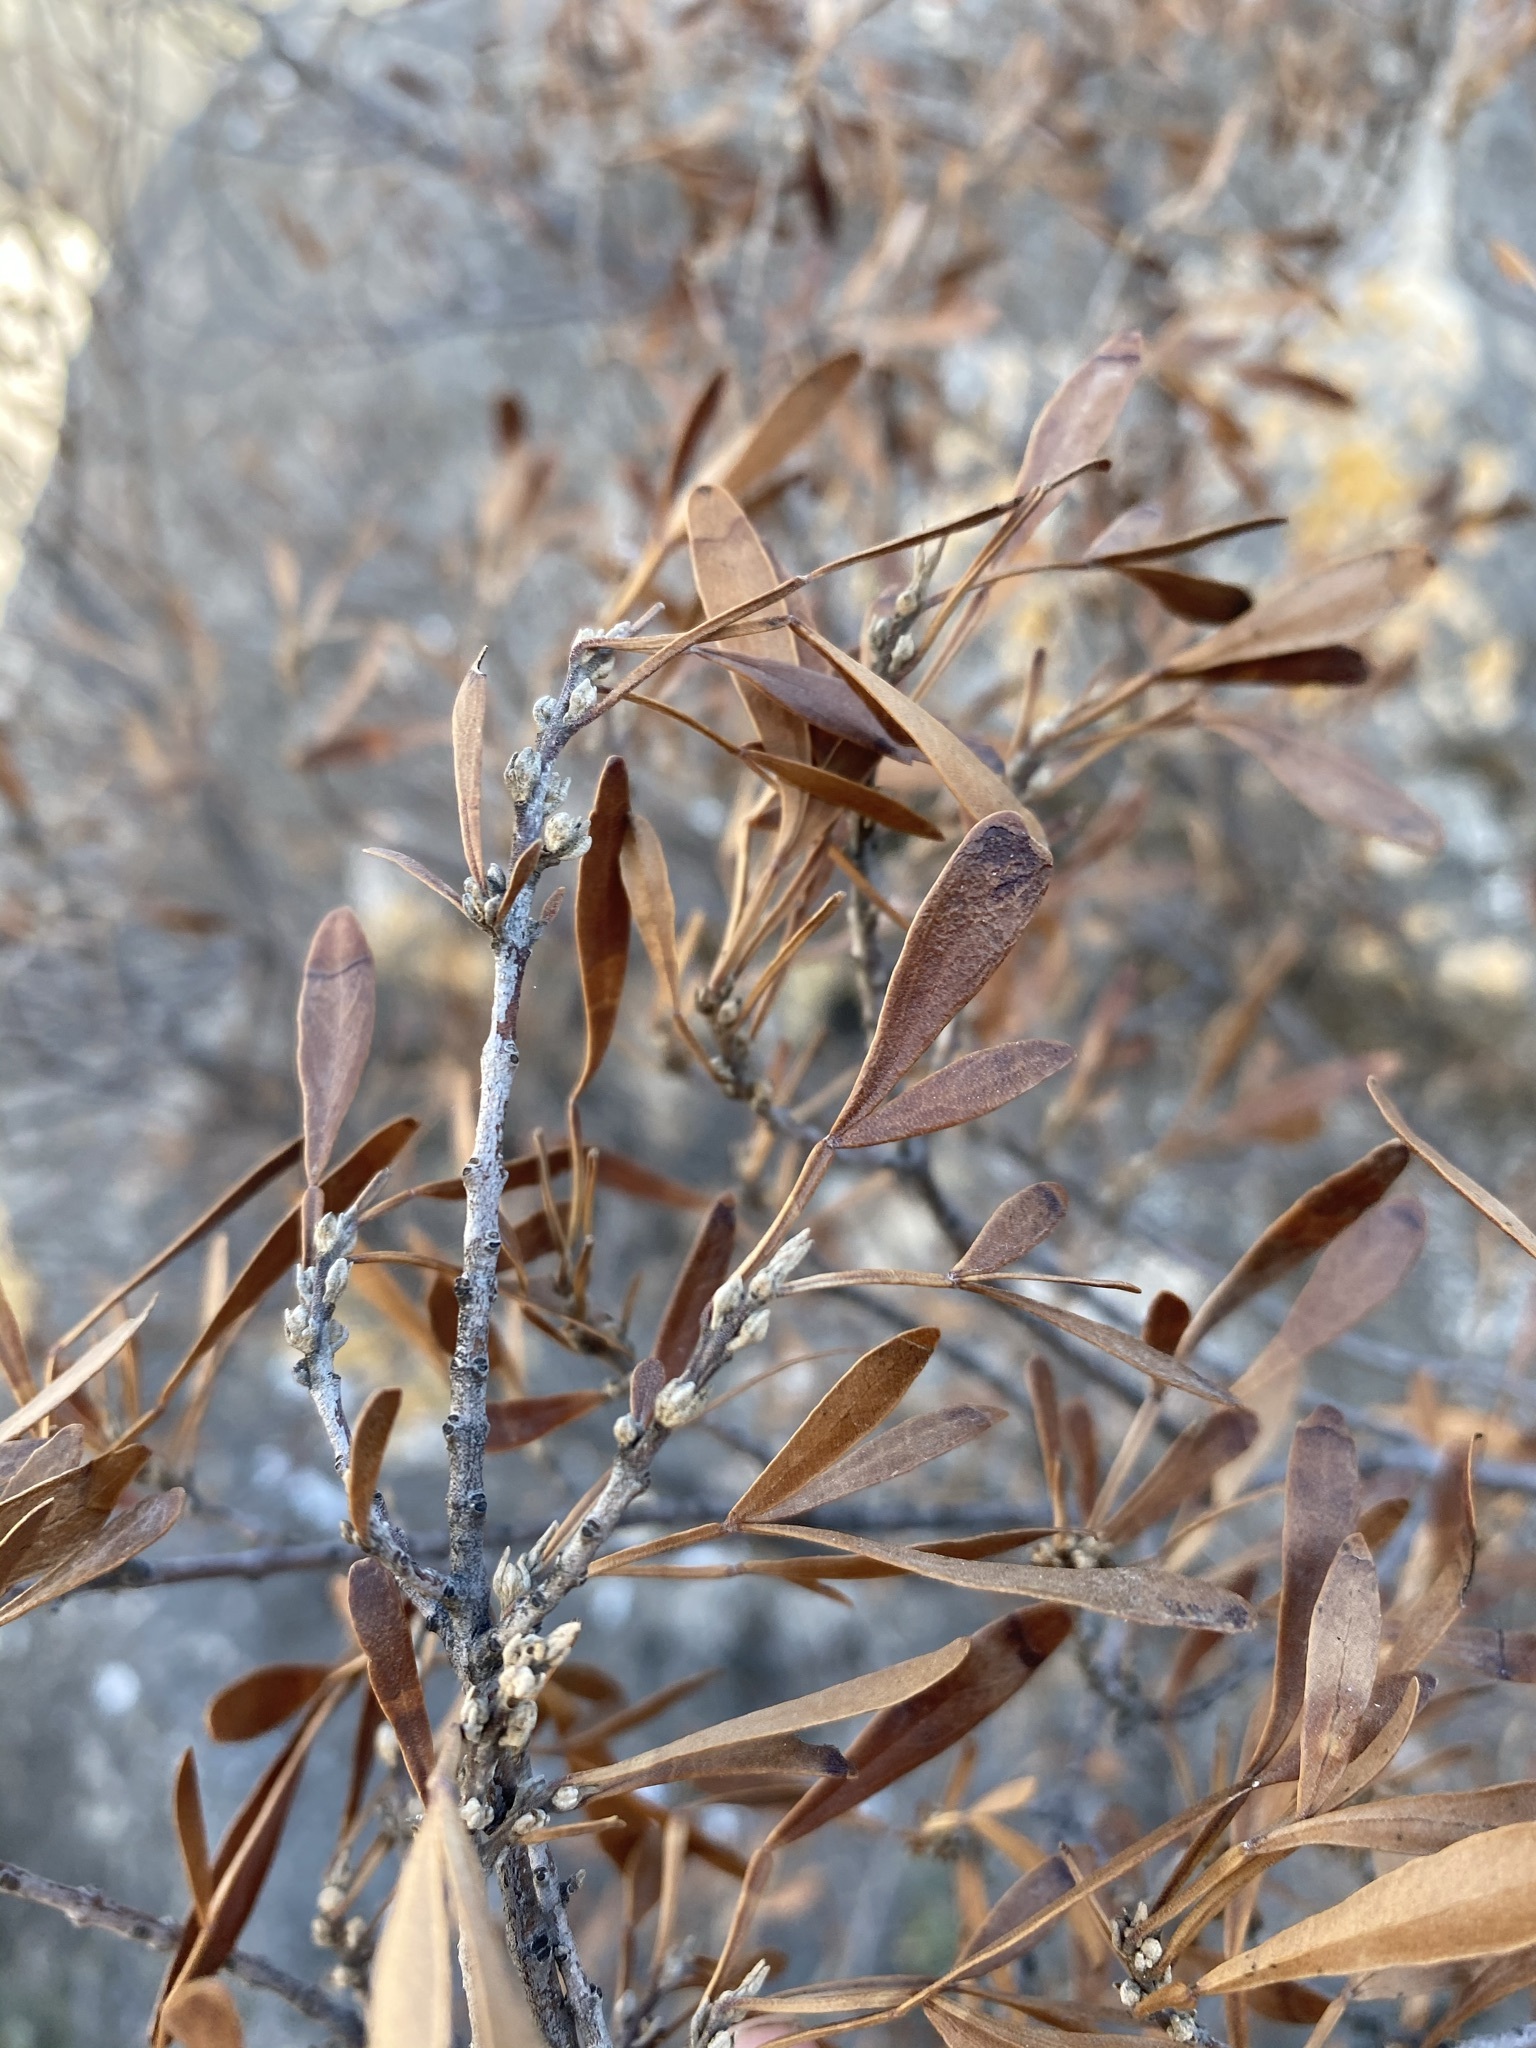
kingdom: Plantae
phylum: Tracheophyta
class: Magnoliopsida
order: Lamiales
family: Oleaceae
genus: Fraxinus
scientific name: Fraxinus greggii
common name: Gregg ash
